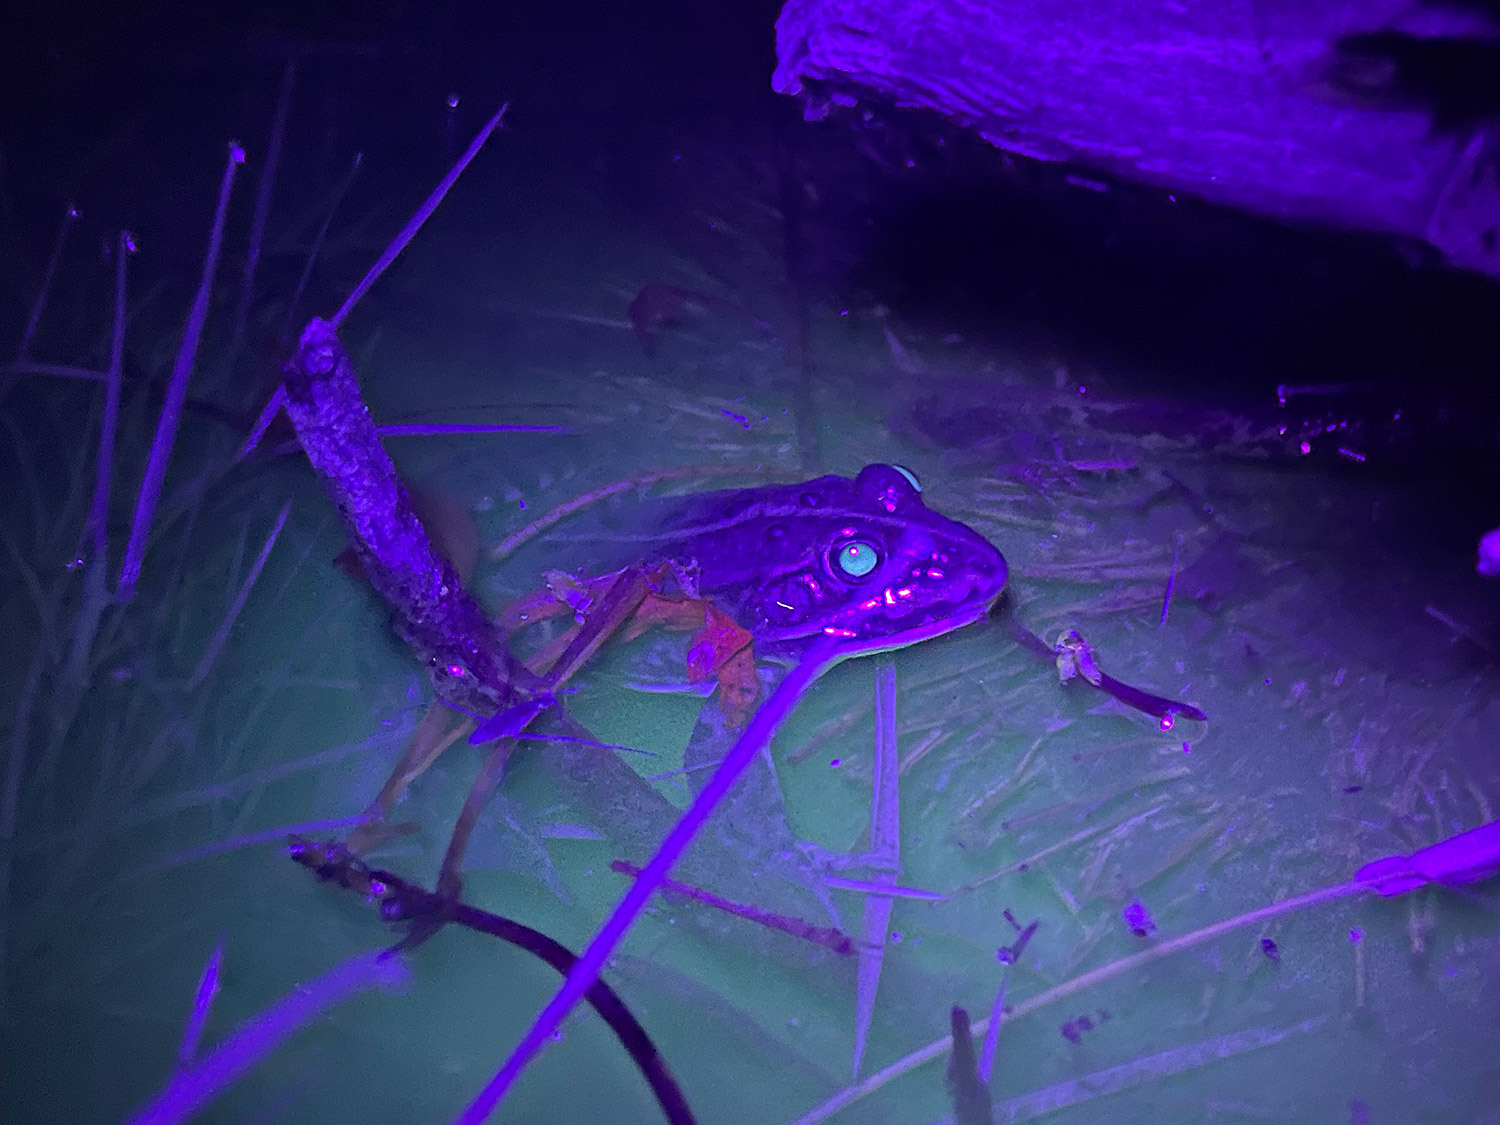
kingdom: Animalia
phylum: Chordata
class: Amphibia
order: Anura
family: Ranidae
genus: Pelophylax
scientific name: Pelophylax
